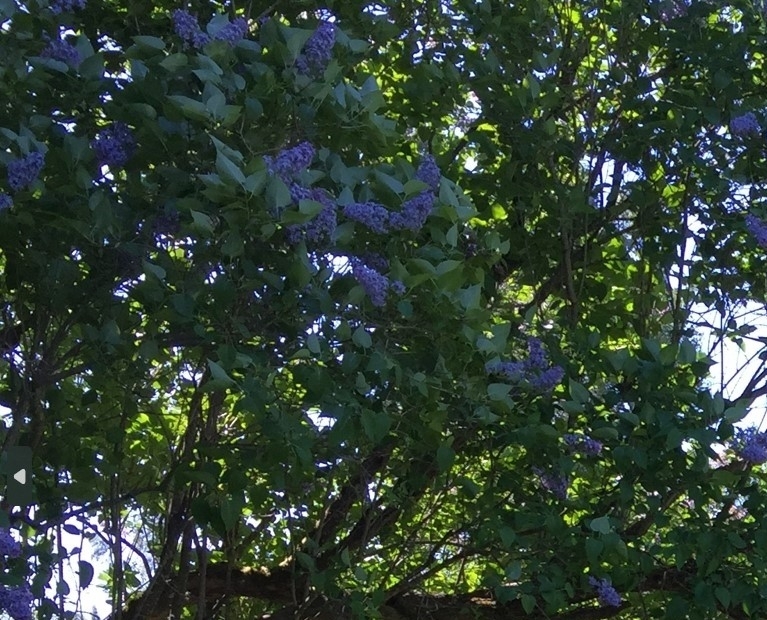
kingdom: Plantae
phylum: Tracheophyta
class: Magnoliopsida
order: Lamiales
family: Oleaceae
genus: Syringa
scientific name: Syringa vulgaris
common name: Common lilac
